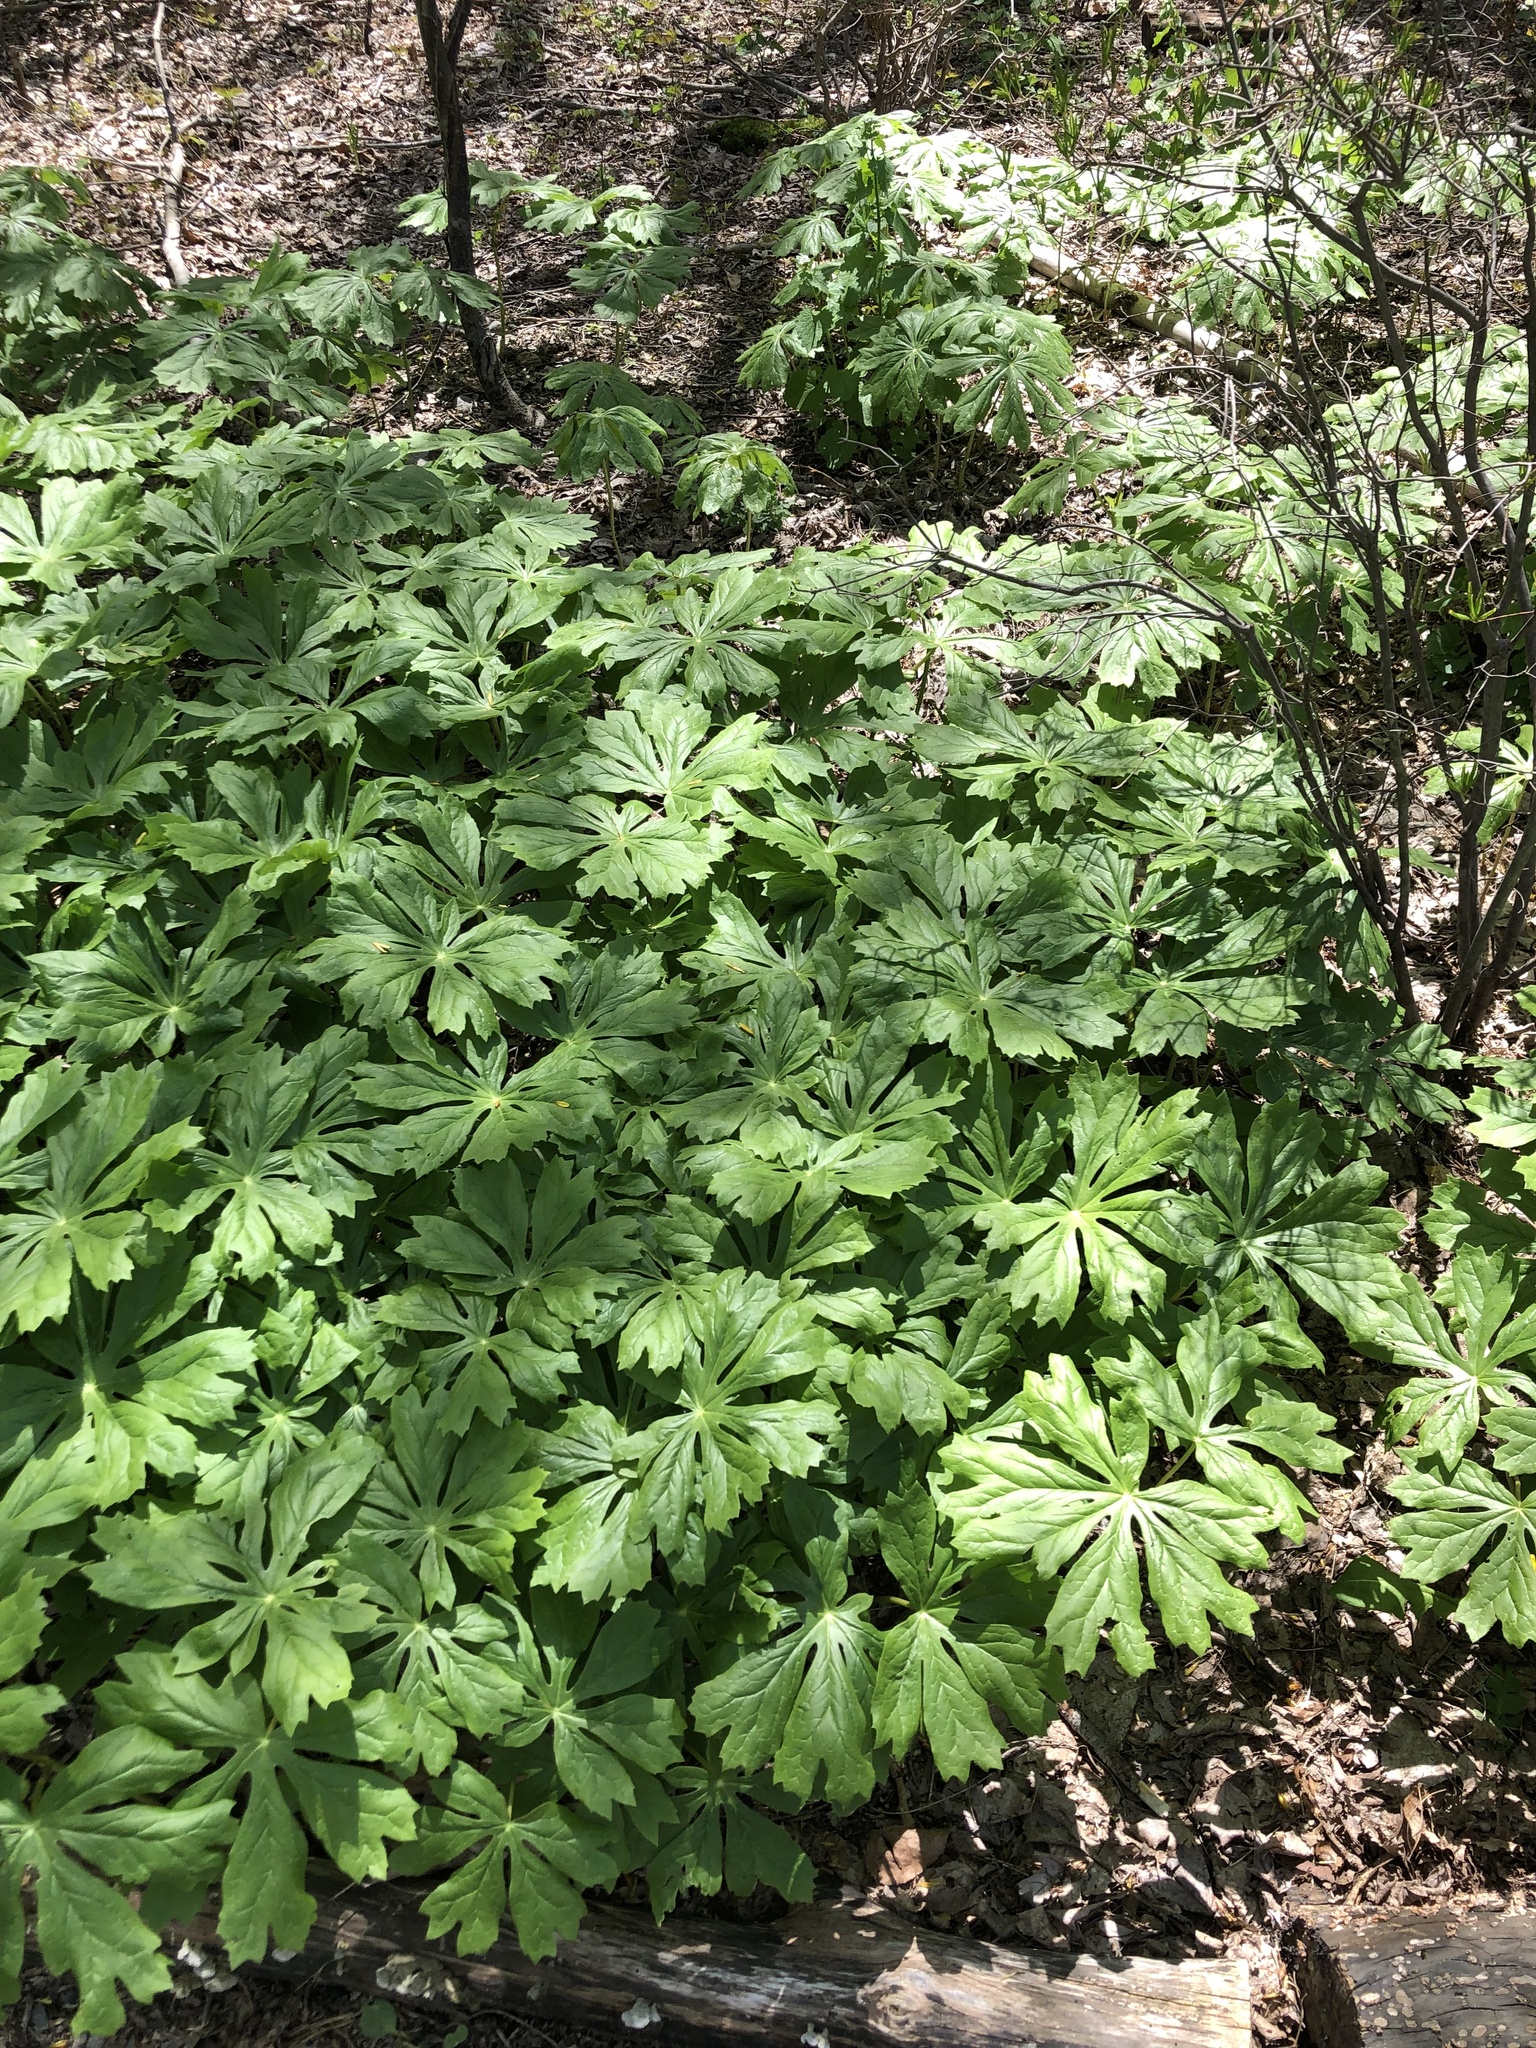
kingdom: Plantae
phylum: Tracheophyta
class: Magnoliopsida
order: Ranunculales
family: Berberidaceae
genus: Podophyllum
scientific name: Podophyllum peltatum
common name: Wild mandrake
